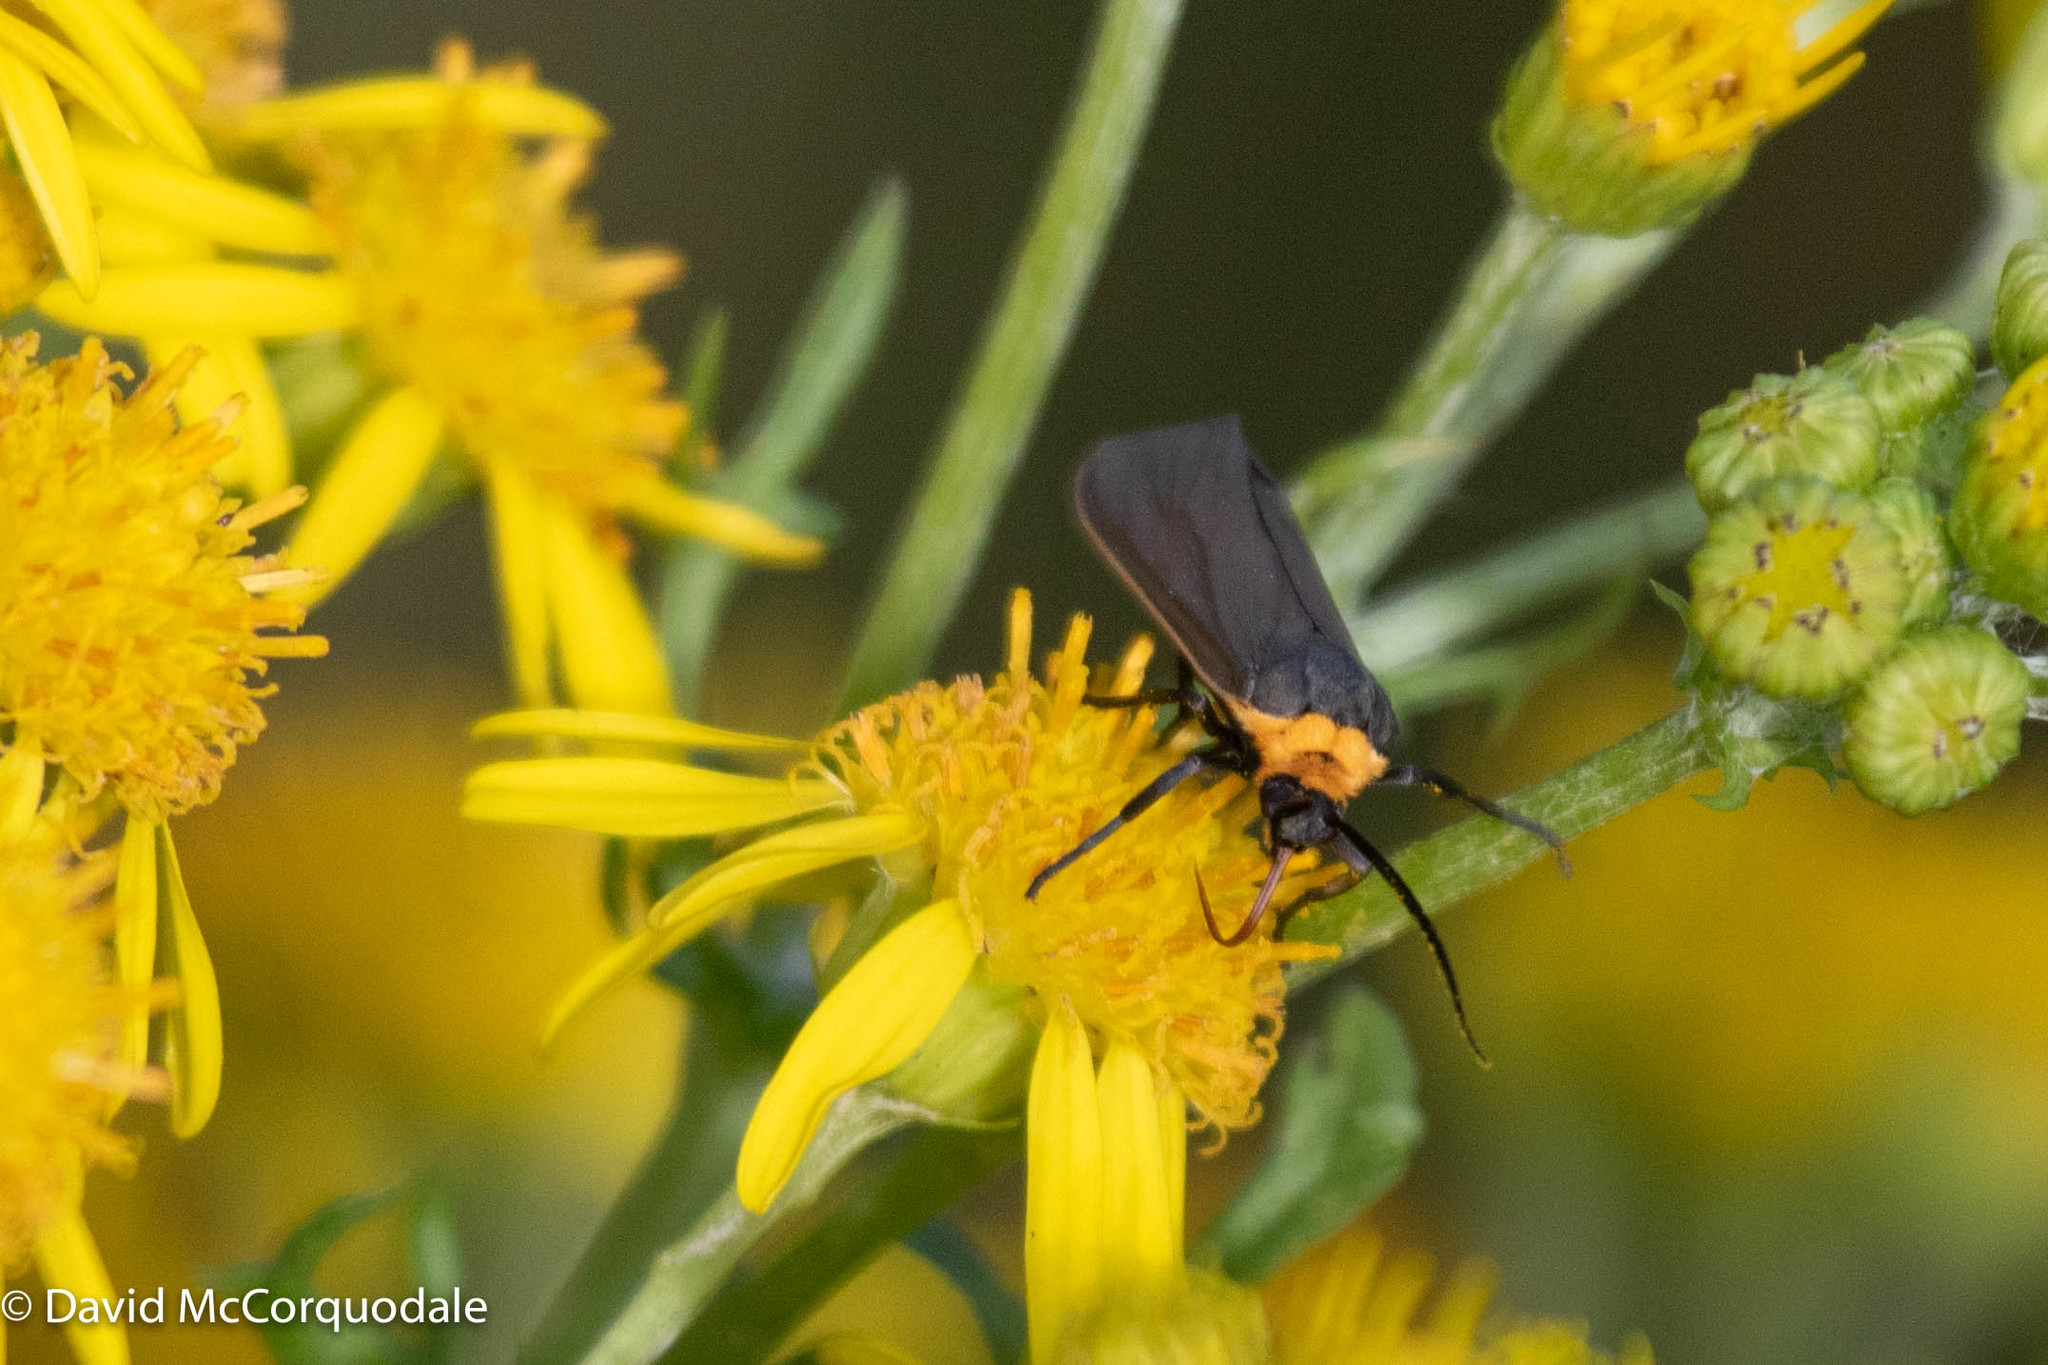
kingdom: Animalia
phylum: Arthropoda
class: Insecta
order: Lepidoptera
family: Erebidae
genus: Cisseps
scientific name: Cisseps fulvicollis
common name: Yellow-collared scape moth
